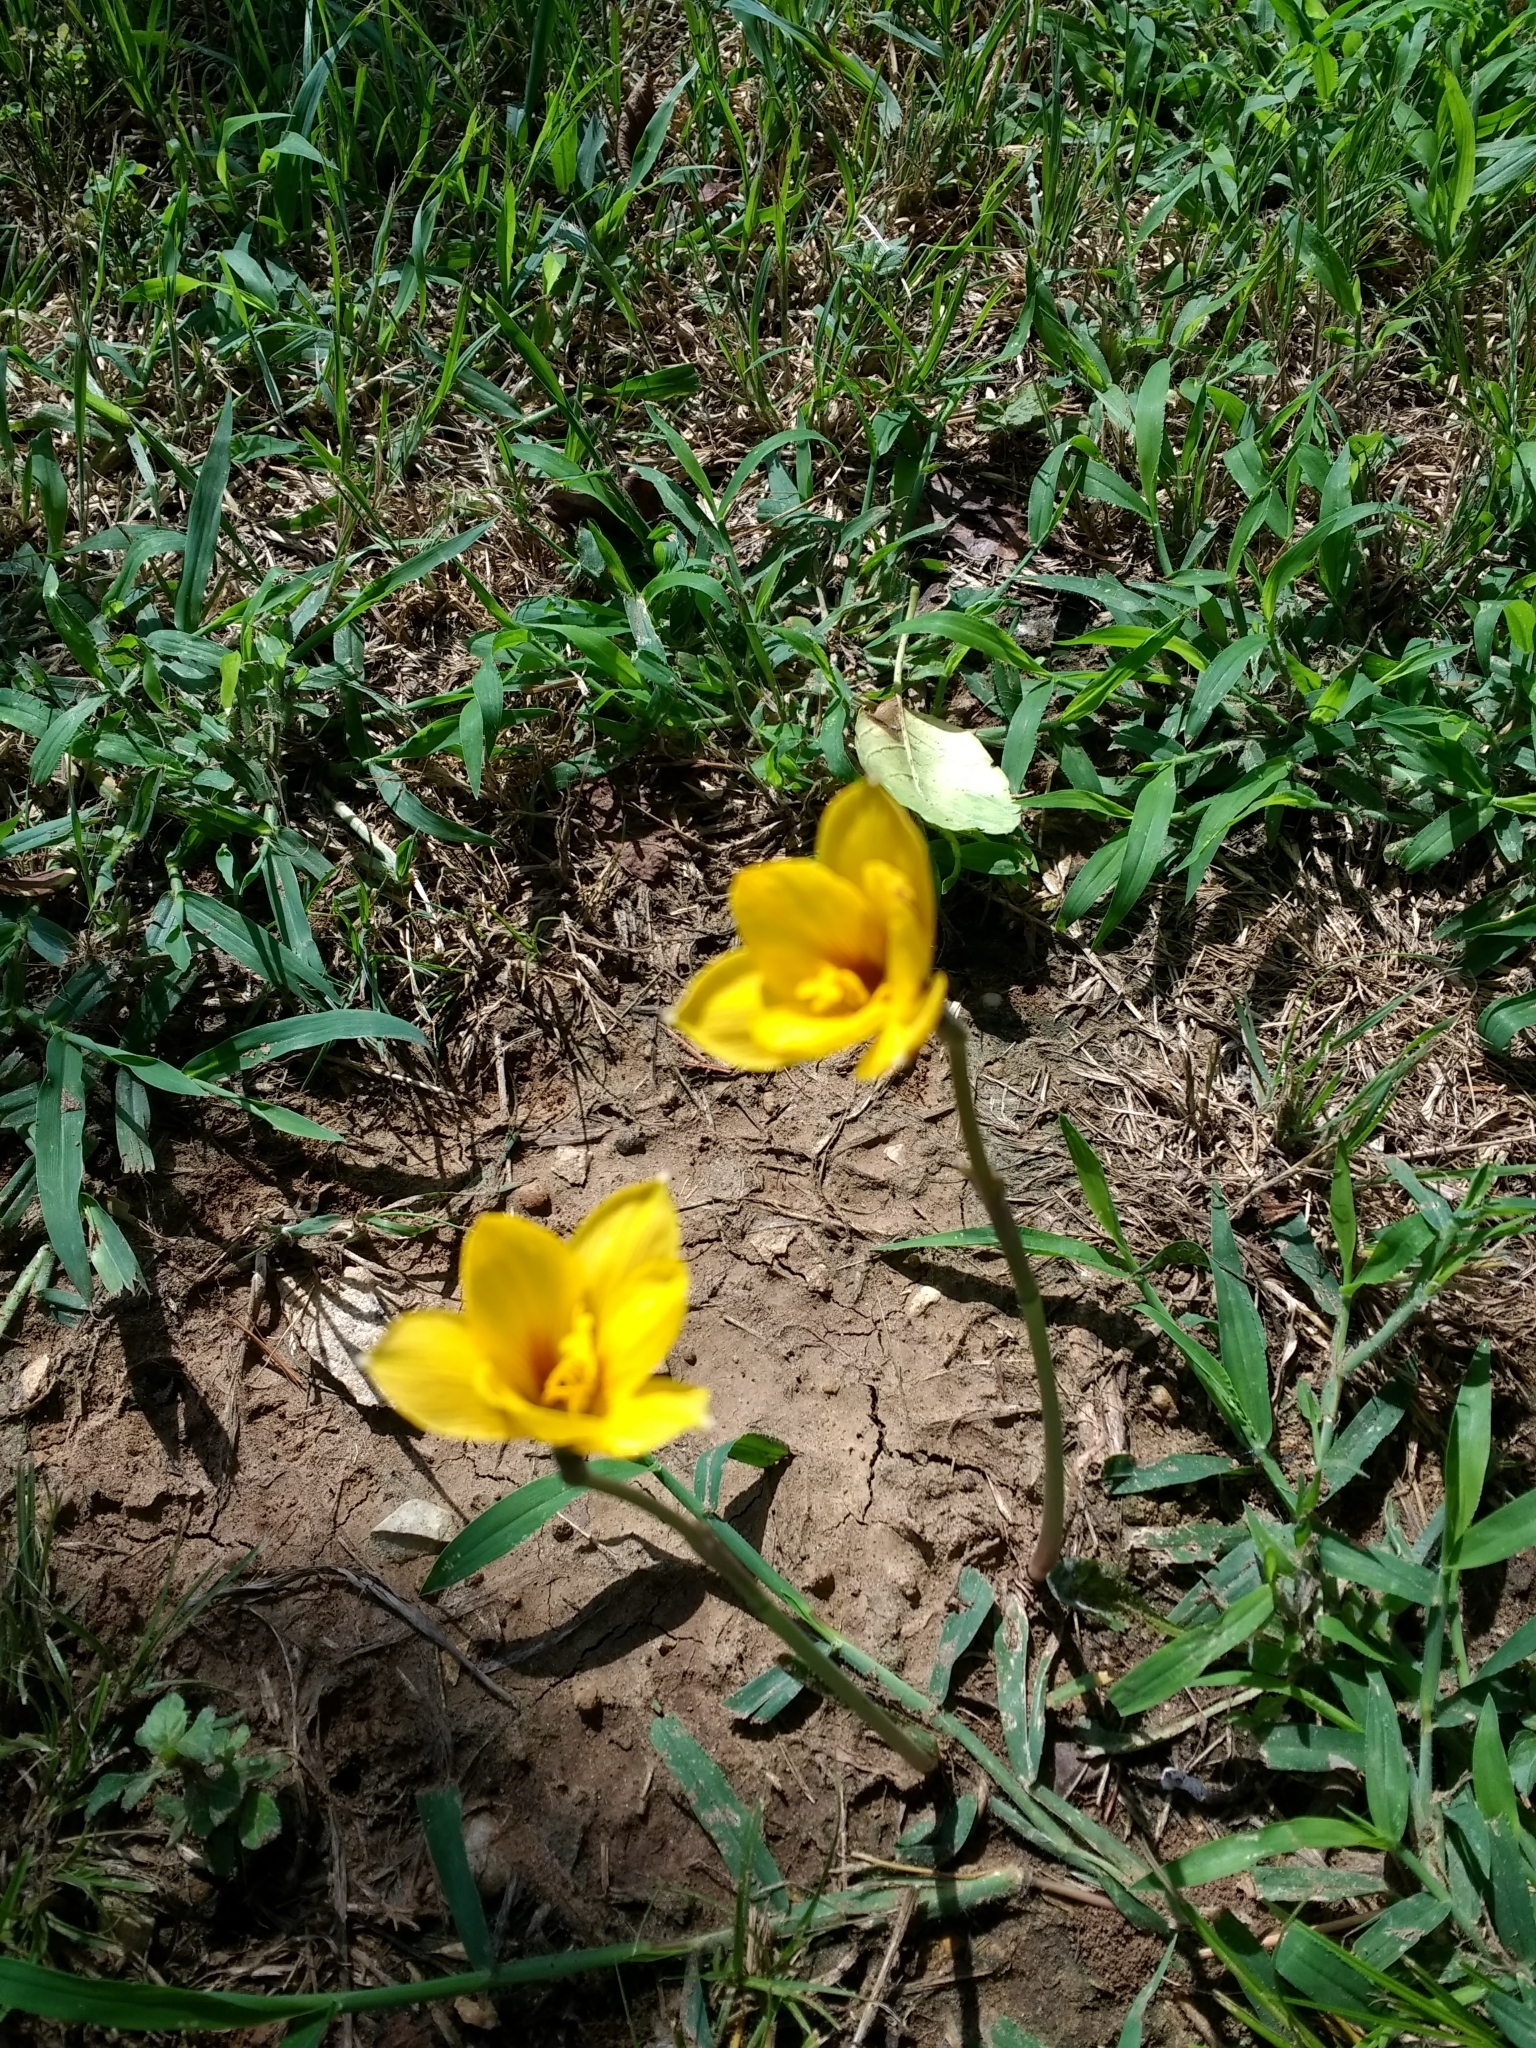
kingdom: Plantae
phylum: Tracheophyta
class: Liliopsida
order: Asparagales
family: Amaryllidaceae
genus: Zephyranthes
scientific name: Zephyranthes tubispatha
